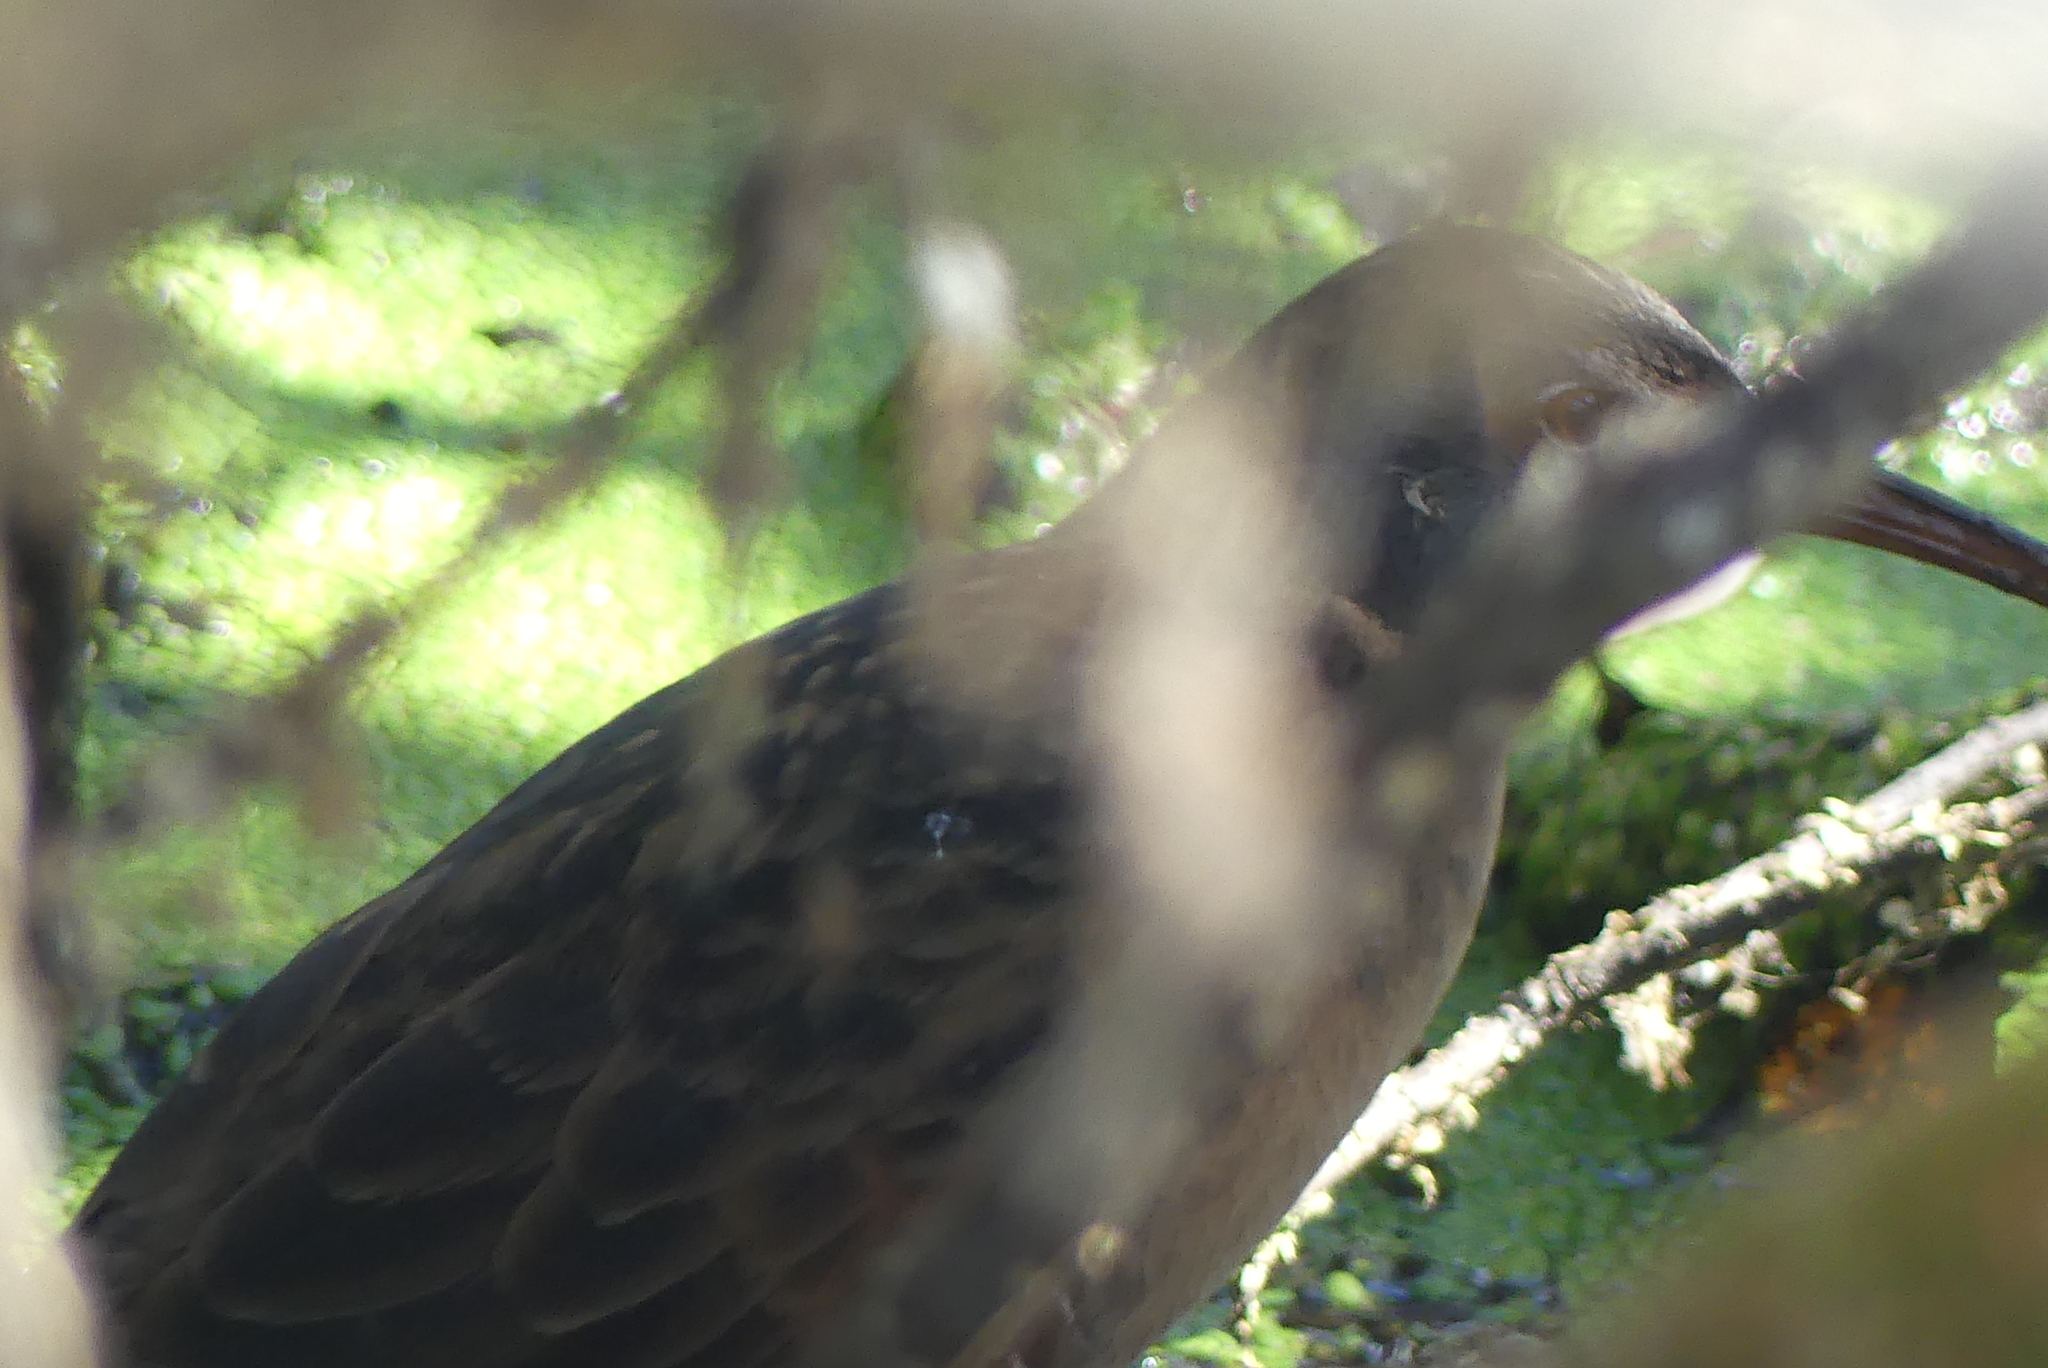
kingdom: Animalia
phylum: Chordata
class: Aves
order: Gruiformes
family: Rallidae
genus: Rallus
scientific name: Rallus limicola
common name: Virginia rail
